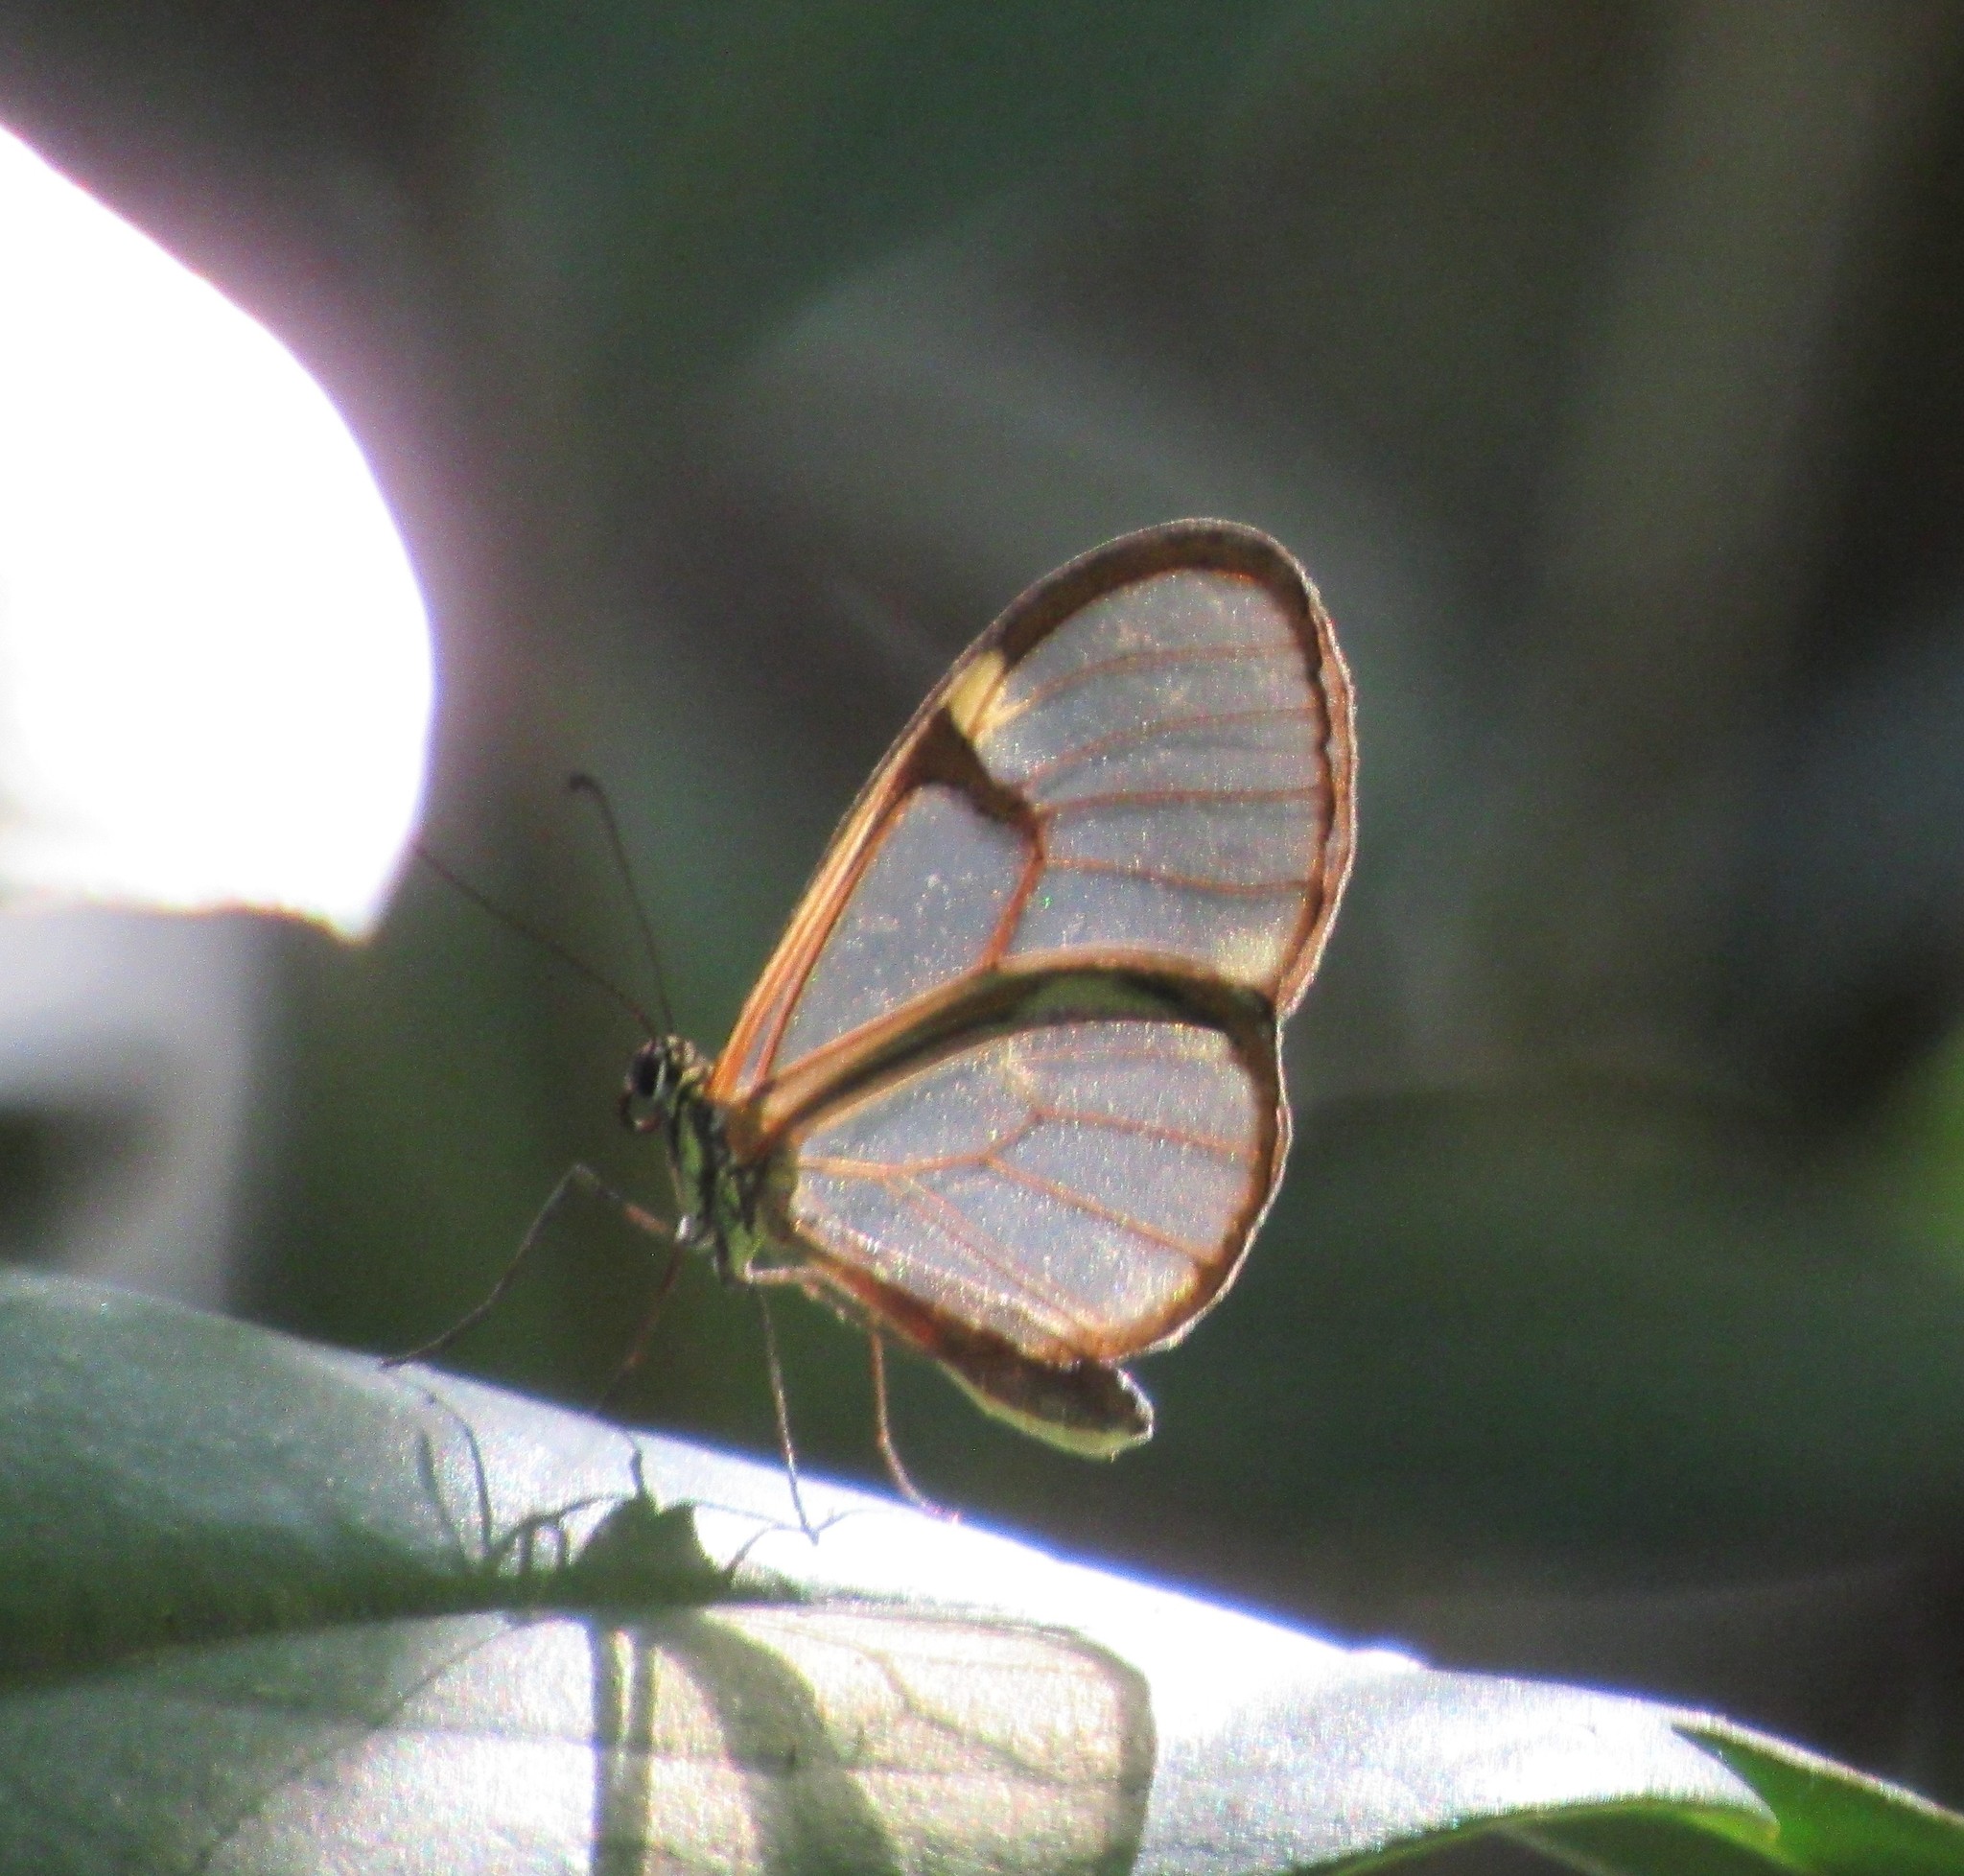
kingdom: Animalia
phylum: Arthropoda
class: Insecta
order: Lepidoptera
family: Nymphalidae
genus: Episcada
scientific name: Episcada hymenaea
